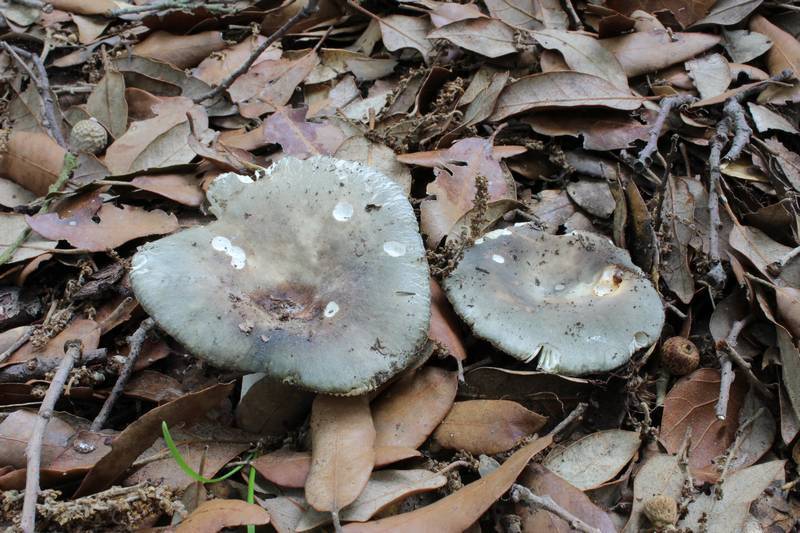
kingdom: Fungi
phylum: Basidiomycota
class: Agaricomycetes
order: Russulales
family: Russulaceae
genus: Russula
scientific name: Russula parazurea
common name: Powdery brittlegill
